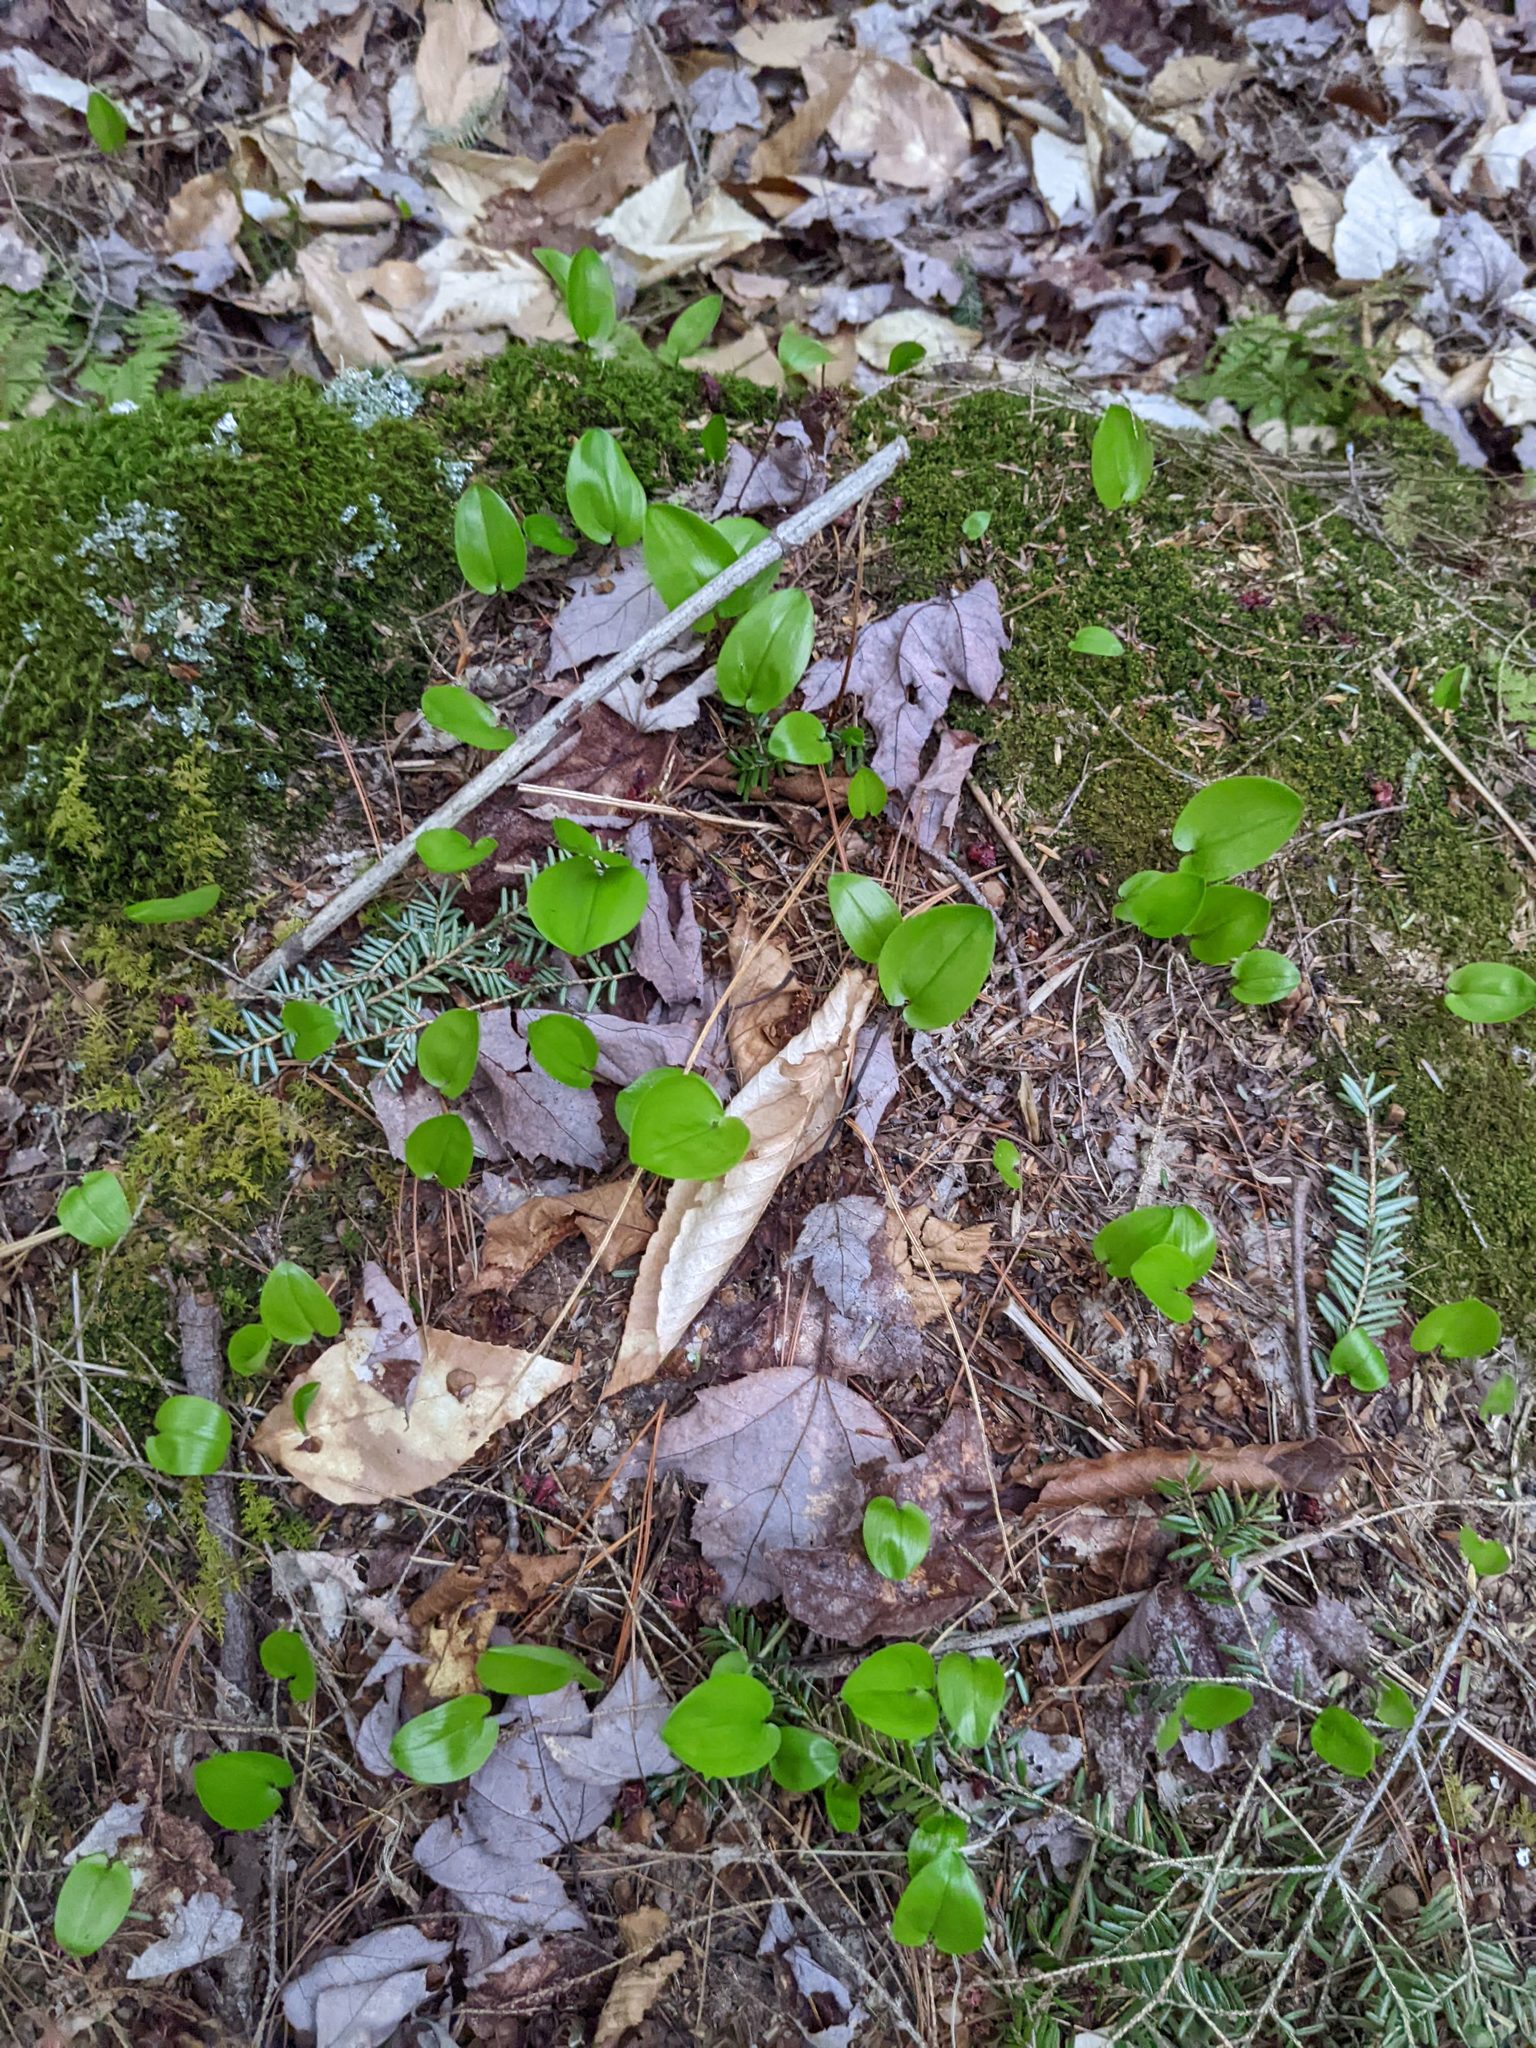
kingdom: Plantae
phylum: Tracheophyta
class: Liliopsida
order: Asparagales
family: Asparagaceae
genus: Maianthemum
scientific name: Maianthemum canadense
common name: False lily-of-the-valley
